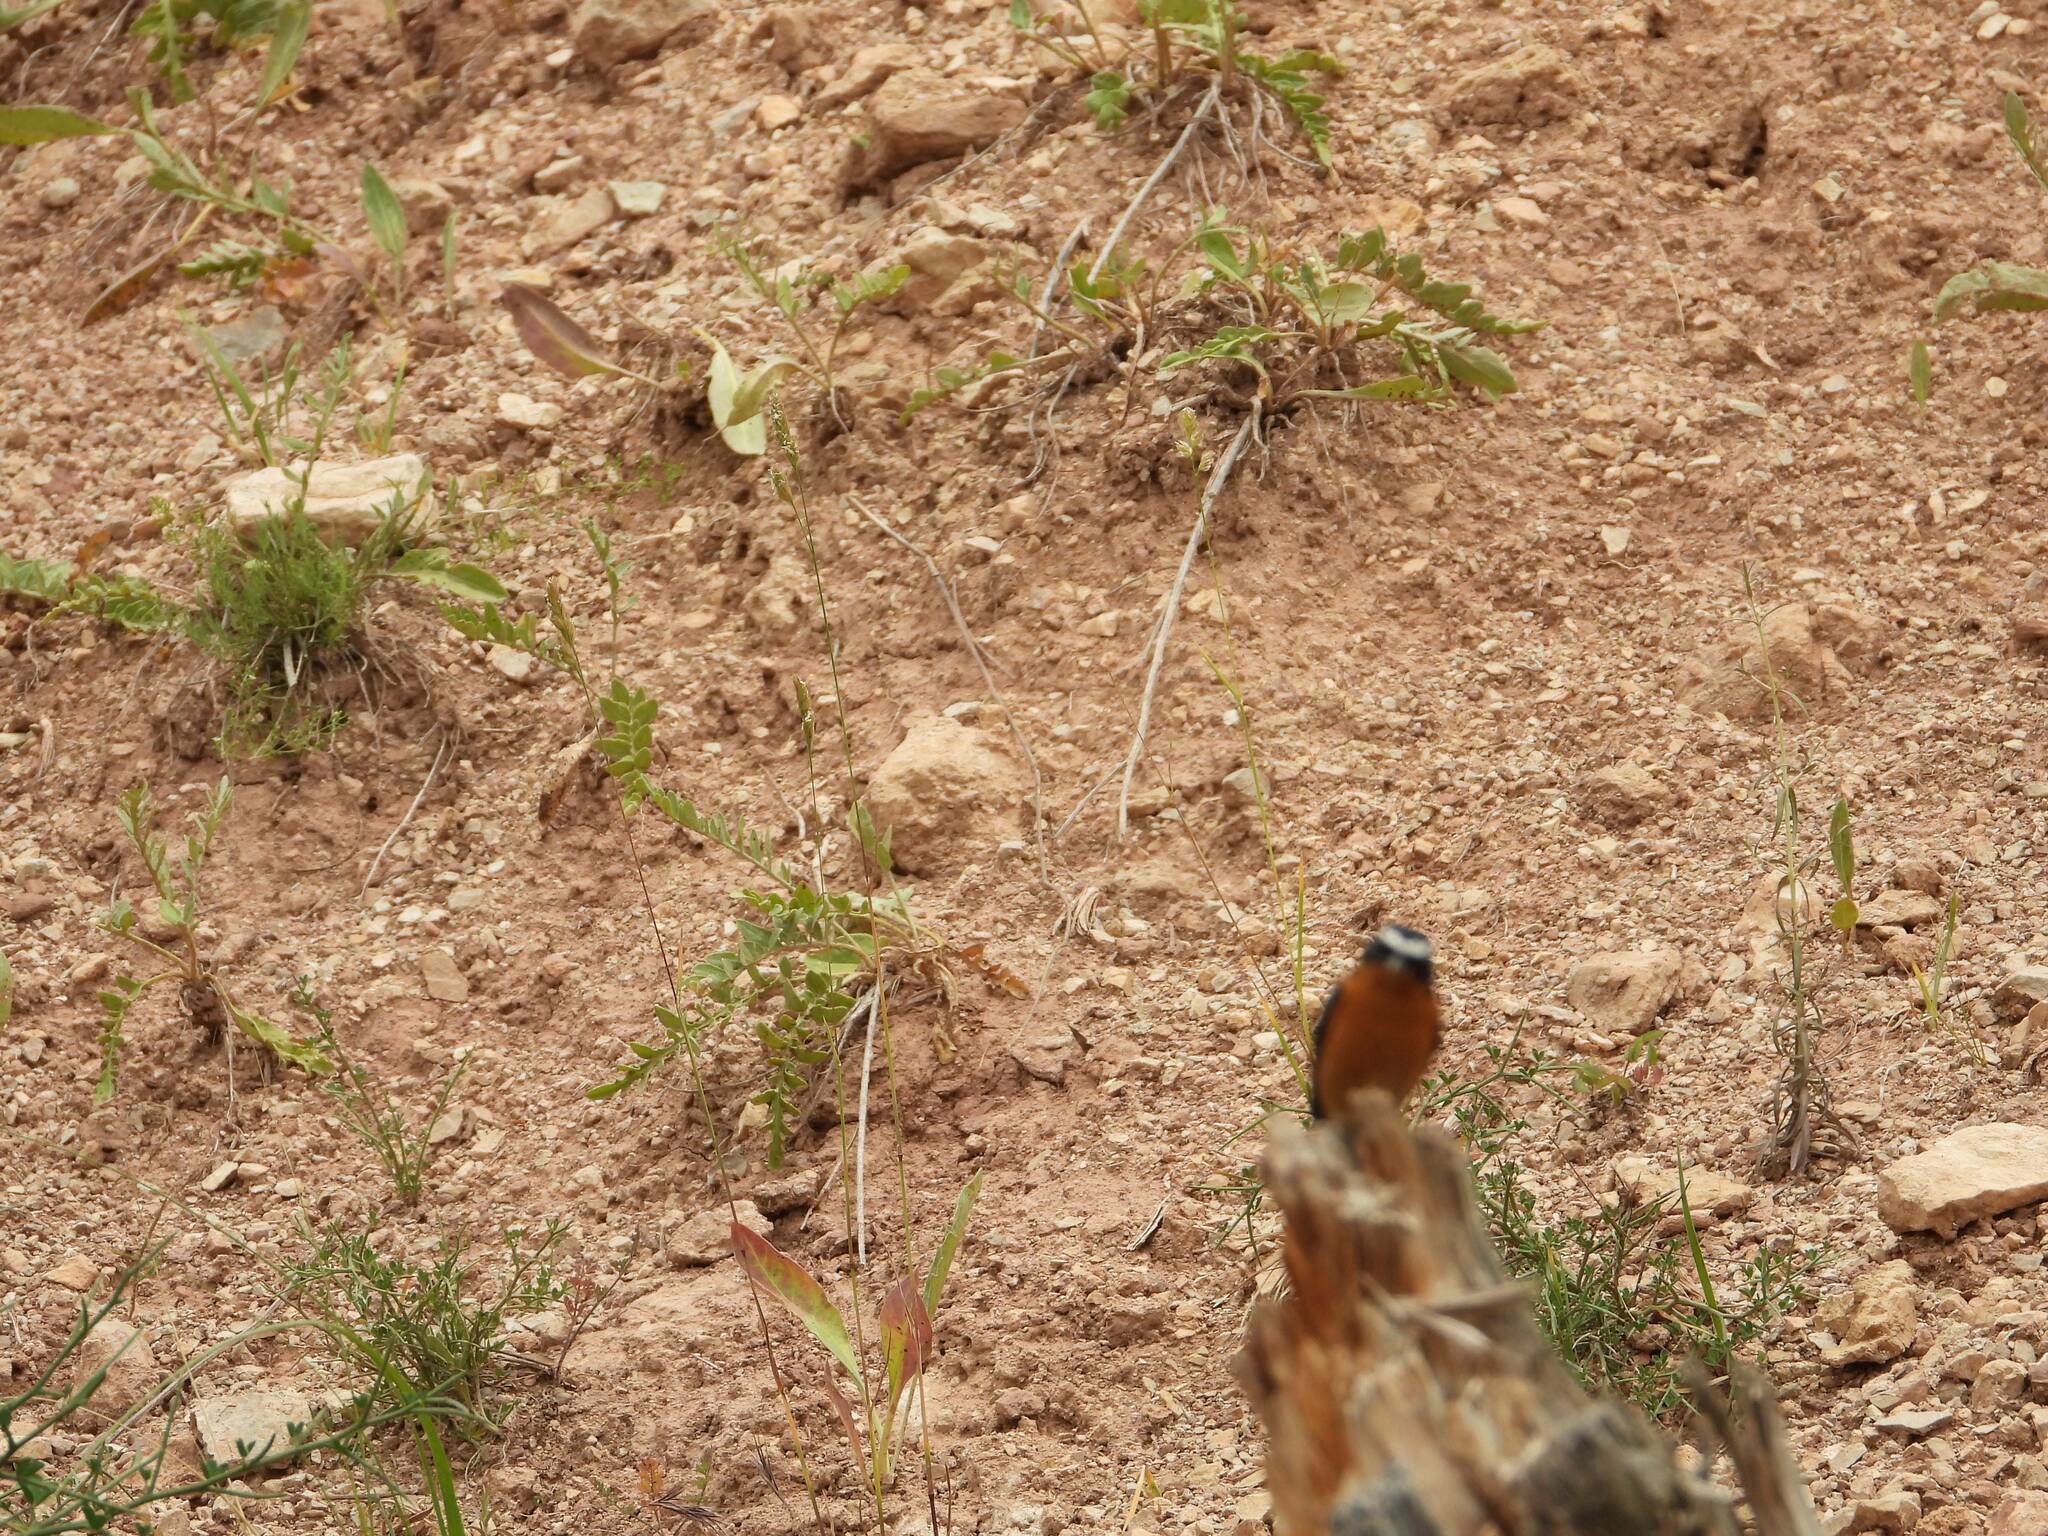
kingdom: Animalia
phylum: Chordata
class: Aves
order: Passeriformes
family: Muscicapidae
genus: Phoenicurus
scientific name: Phoenicurus moussieri
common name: Moussier's redstart
